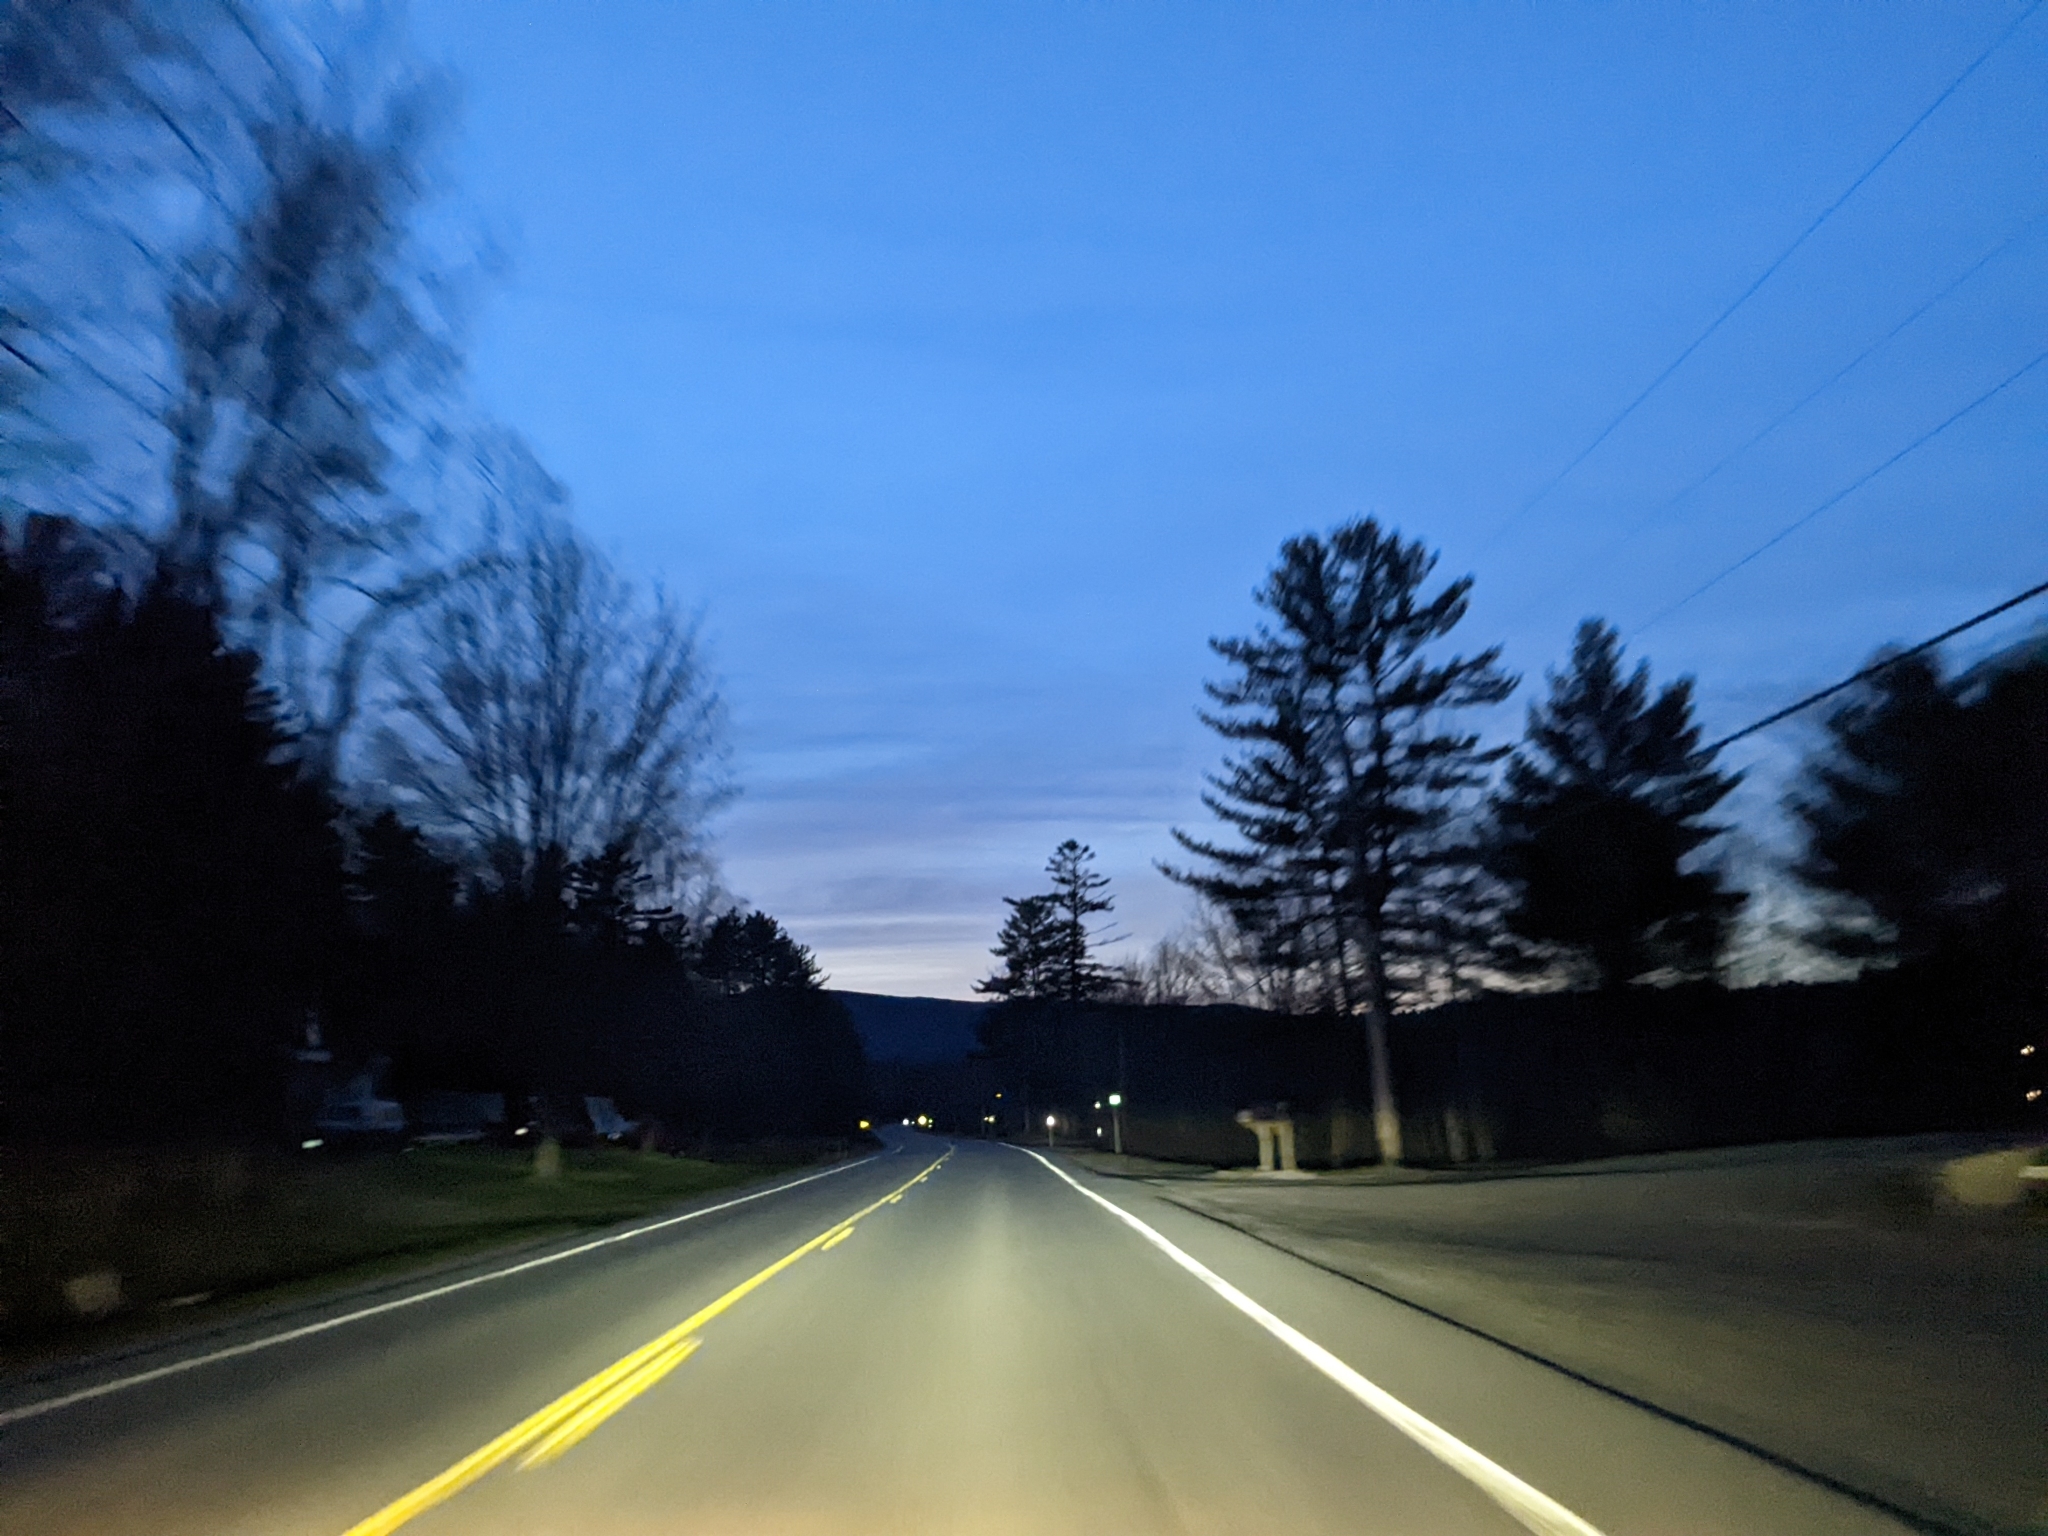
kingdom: Plantae
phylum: Tracheophyta
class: Pinopsida
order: Pinales
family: Pinaceae
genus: Pinus
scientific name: Pinus strobus
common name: Weymouth pine
